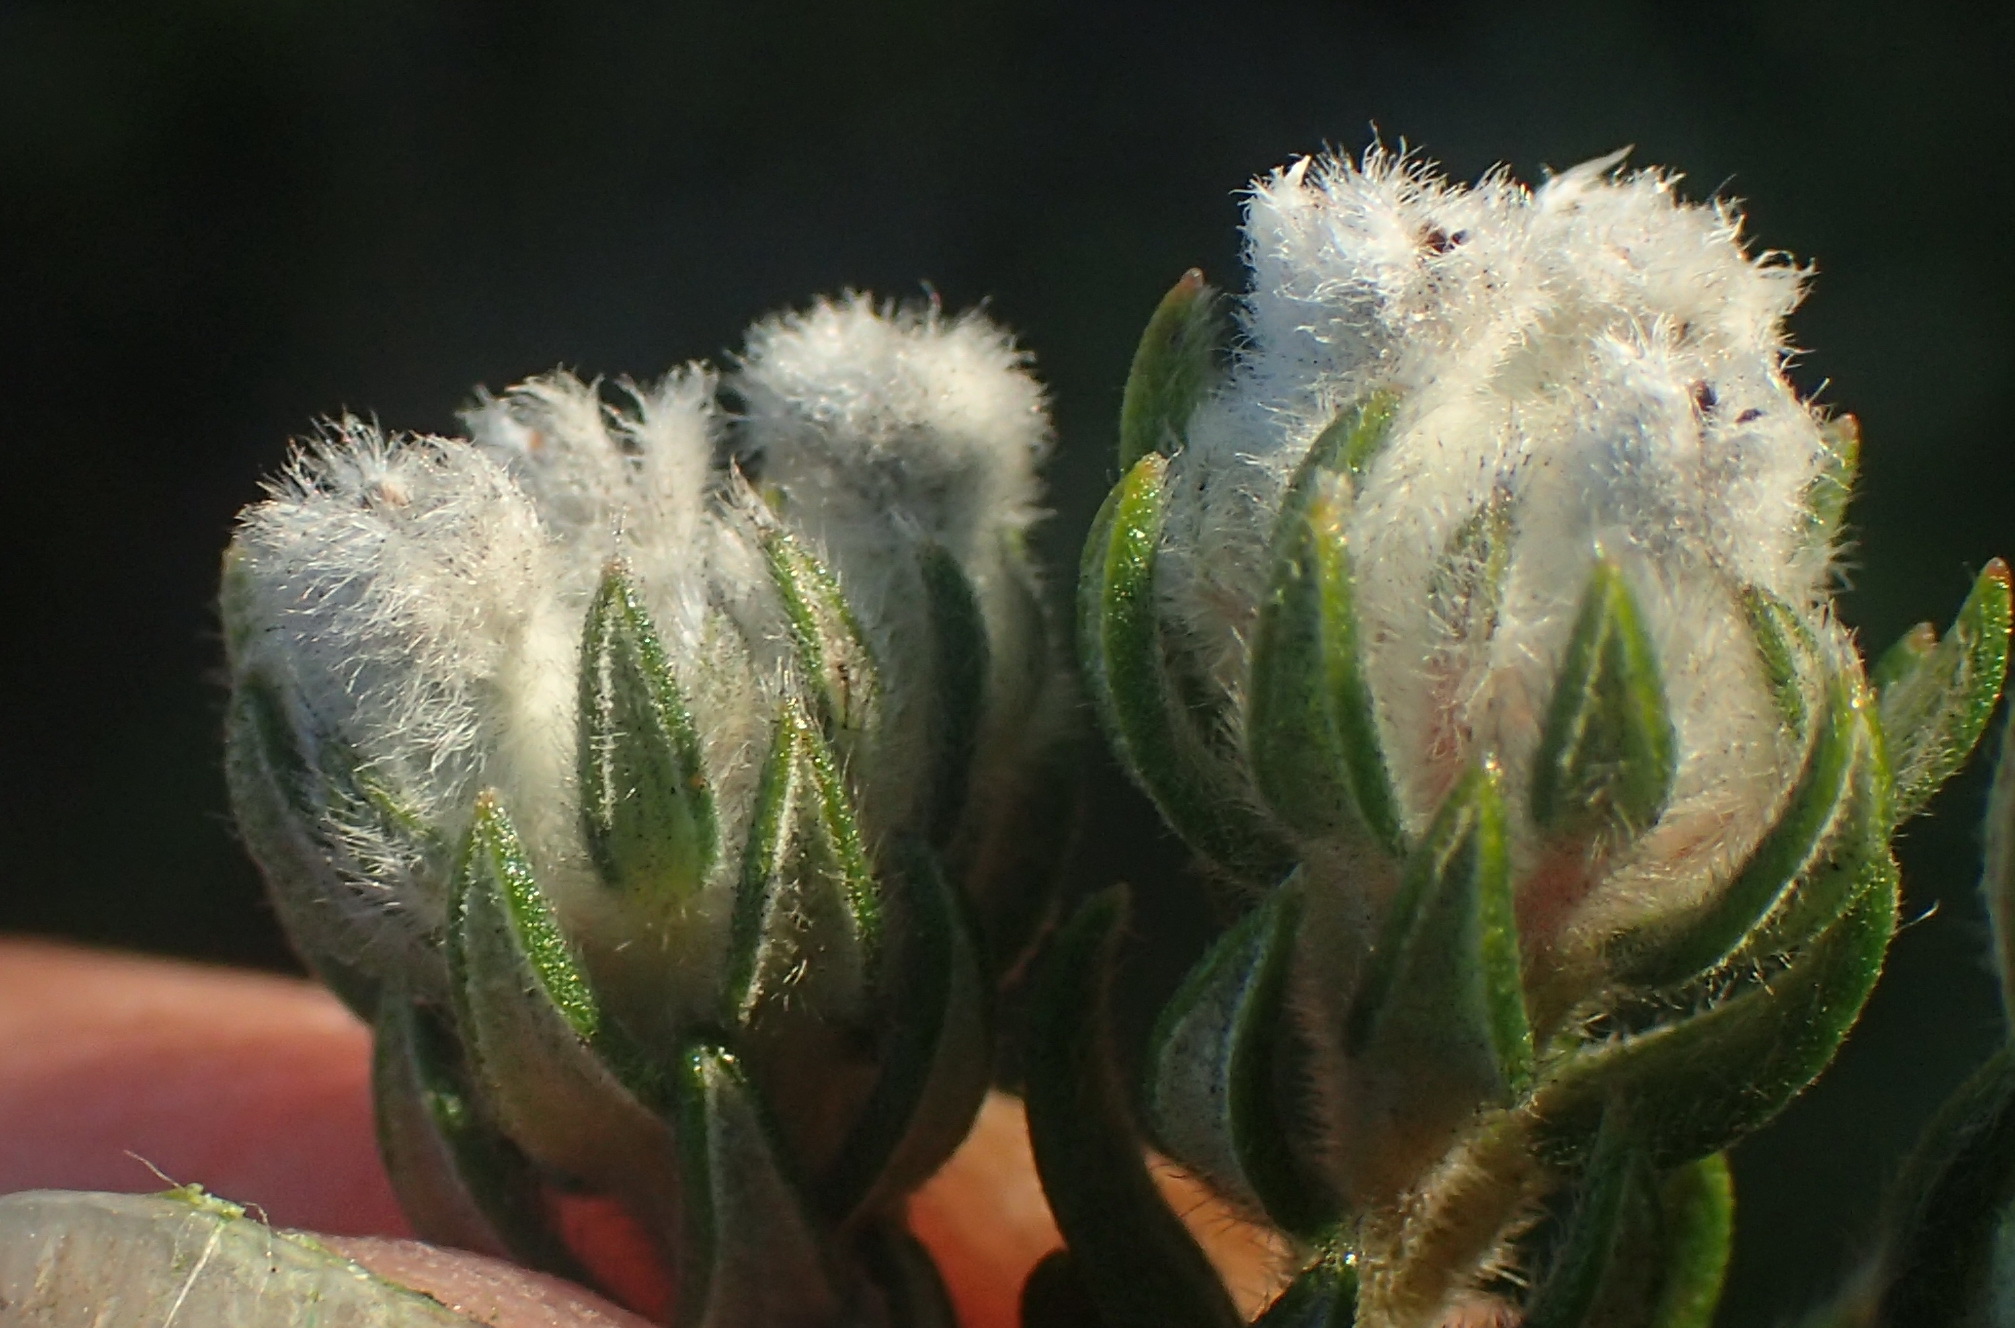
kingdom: Plantae
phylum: Tracheophyta
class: Magnoliopsida
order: Rosales
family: Rhamnaceae
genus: Phylica
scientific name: Phylica purpurea
